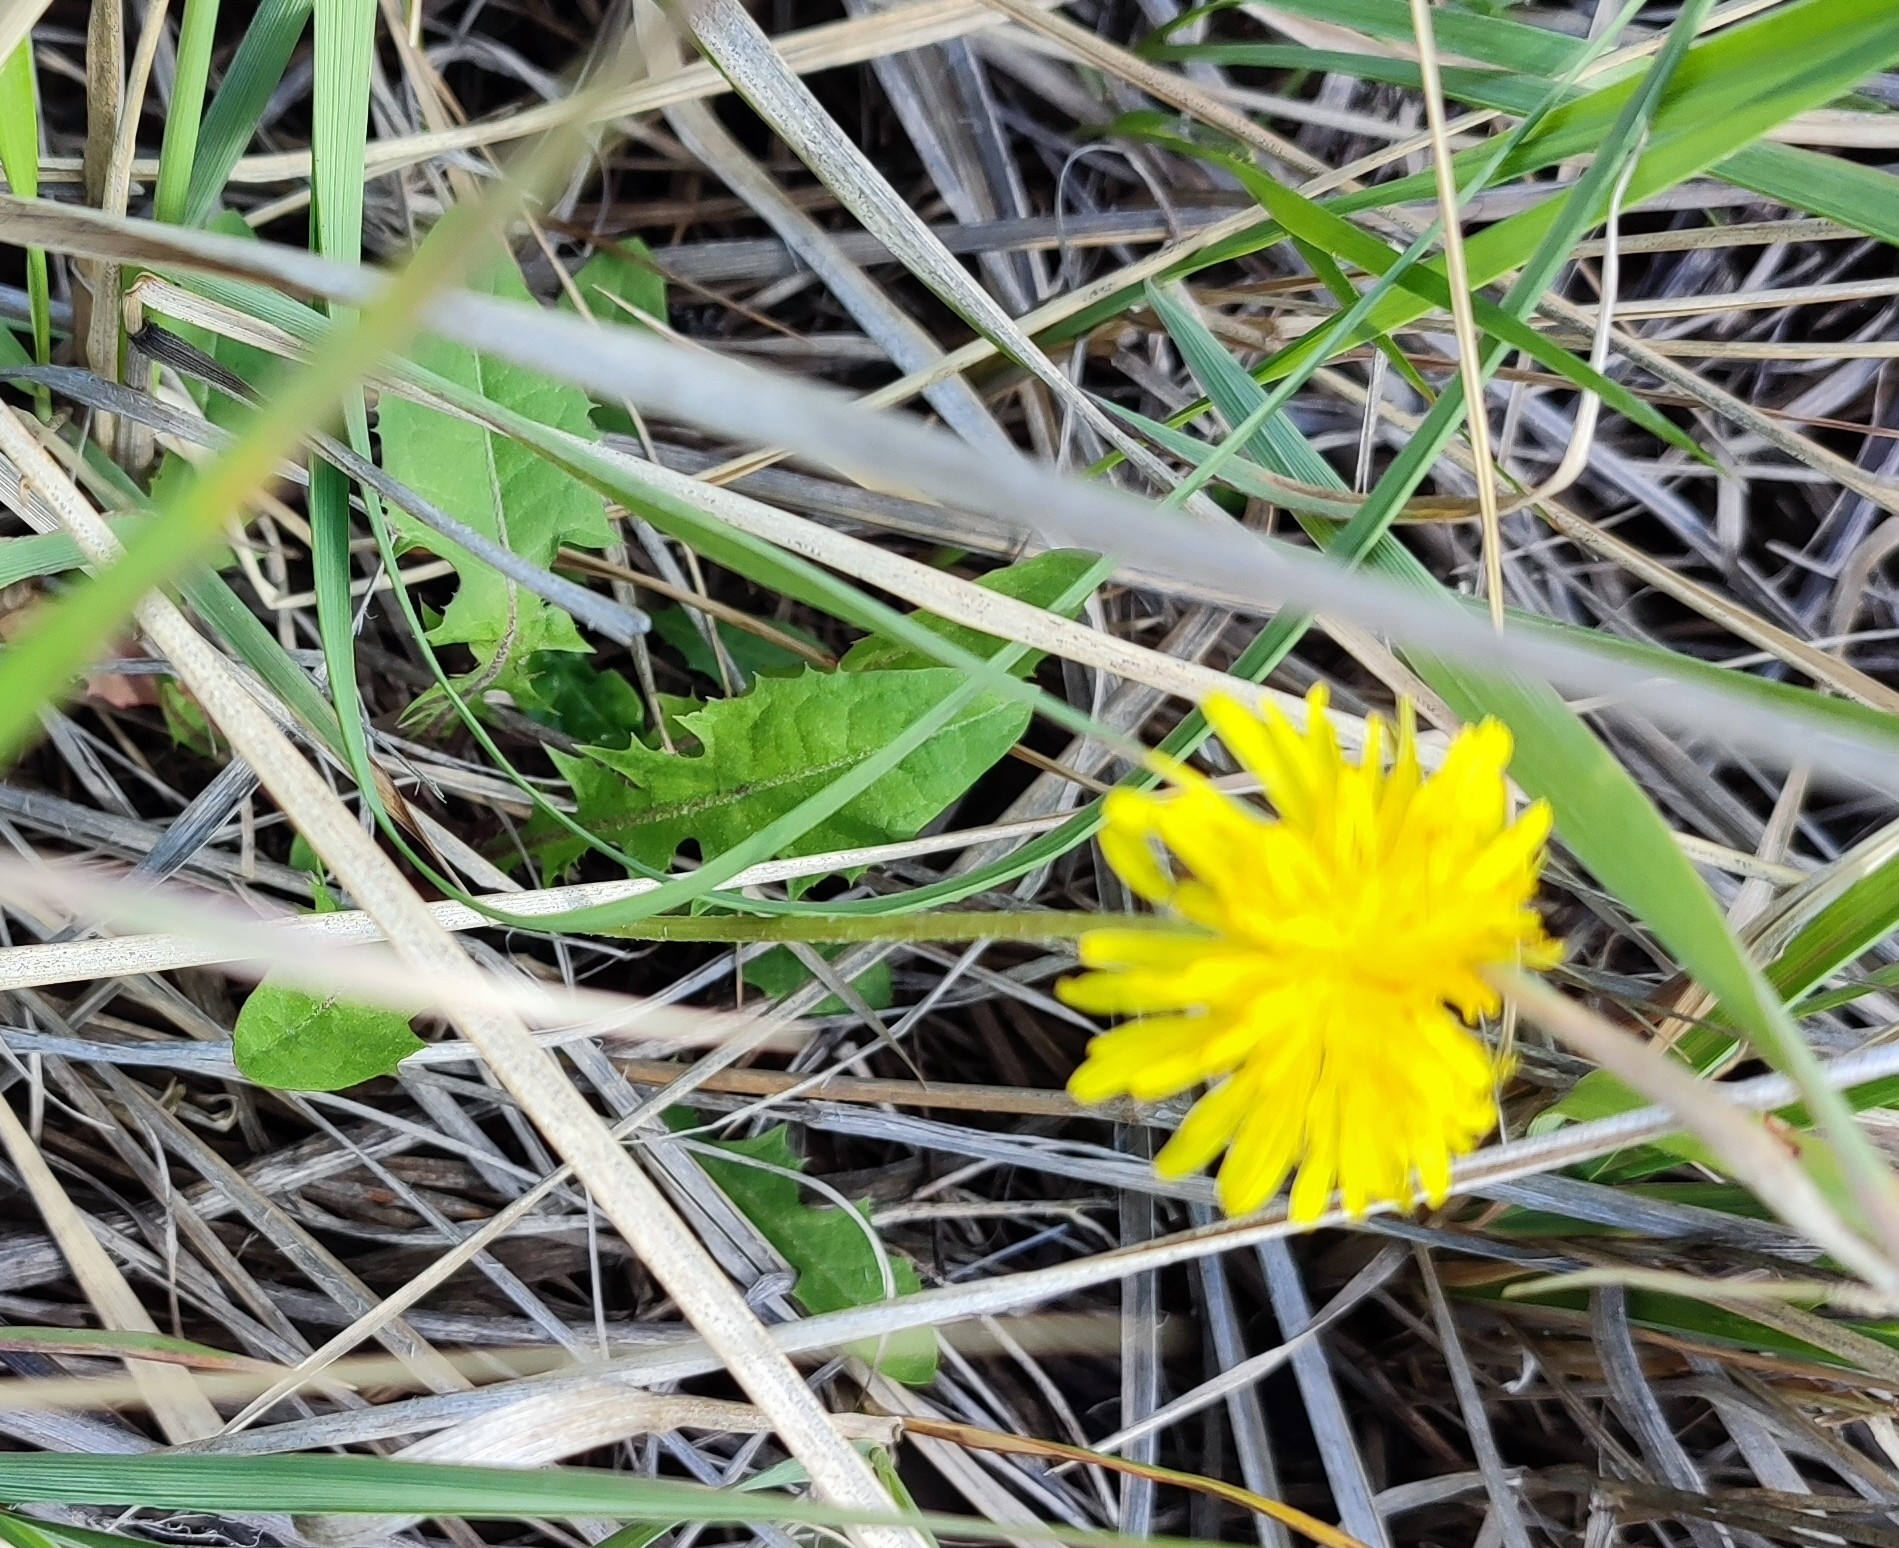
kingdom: Plantae
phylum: Tracheophyta
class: Magnoliopsida
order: Asterales
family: Asteraceae
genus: Taraxacum
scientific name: Taraxacum officinale
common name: Common dandelion
